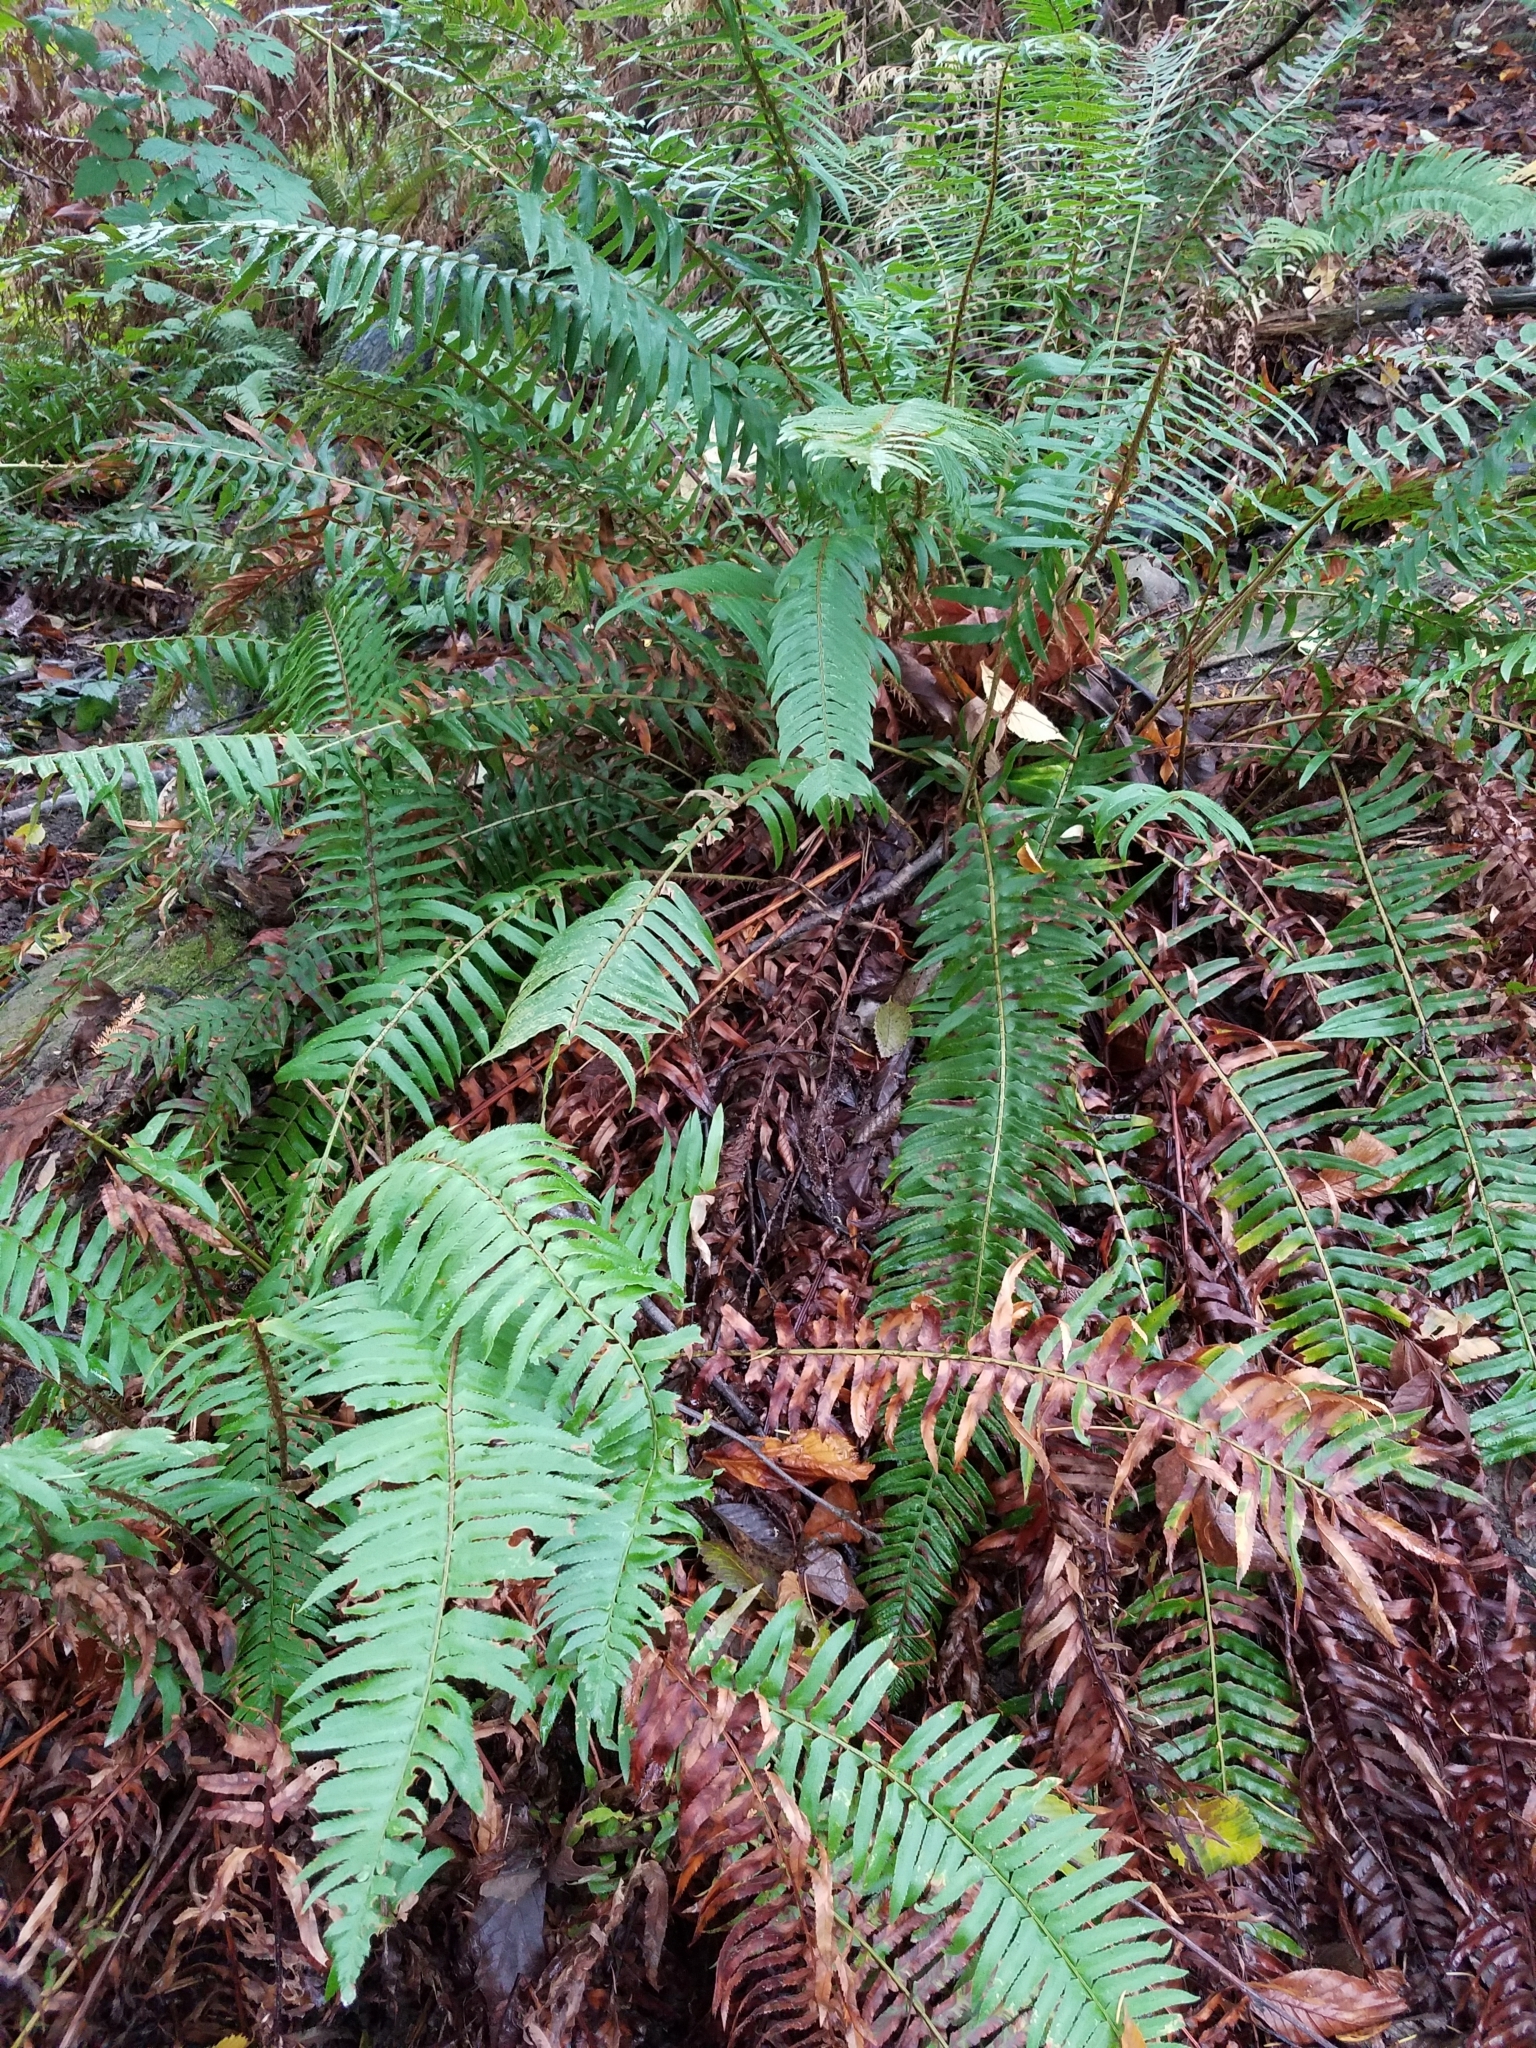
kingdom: Plantae
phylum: Tracheophyta
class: Polypodiopsida
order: Polypodiales
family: Dryopteridaceae
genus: Polystichum
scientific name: Polystichum munitum
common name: Western sword-fern
